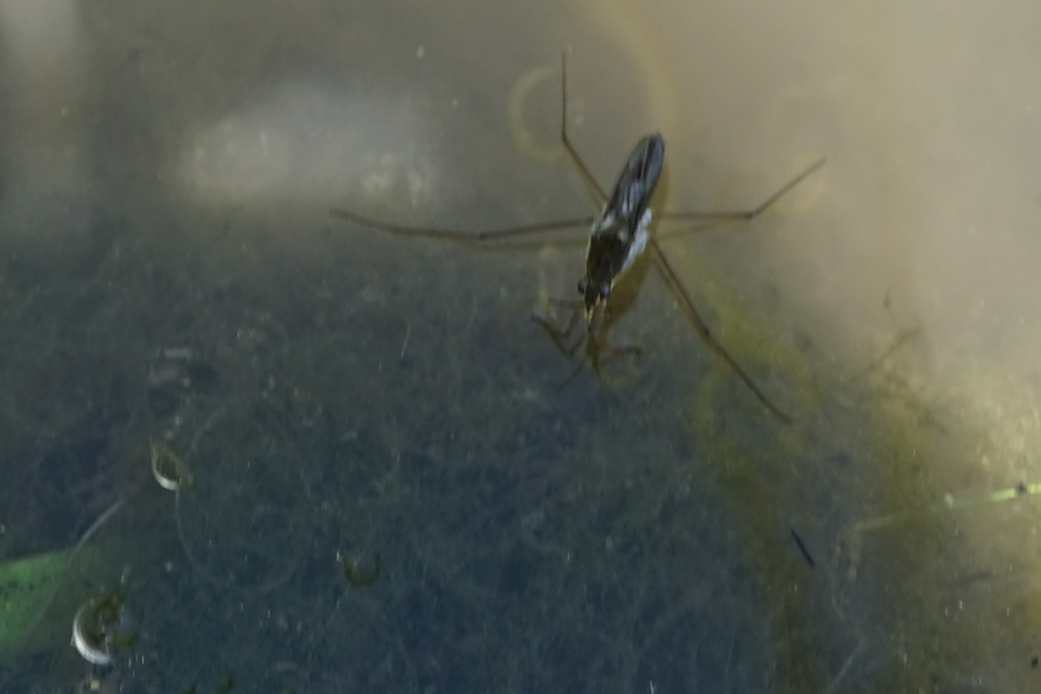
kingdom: Animalia
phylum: Arthropoda
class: Insecta
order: Hemiptera
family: Gerridae
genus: Gerris
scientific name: Gerris latiabdominis
